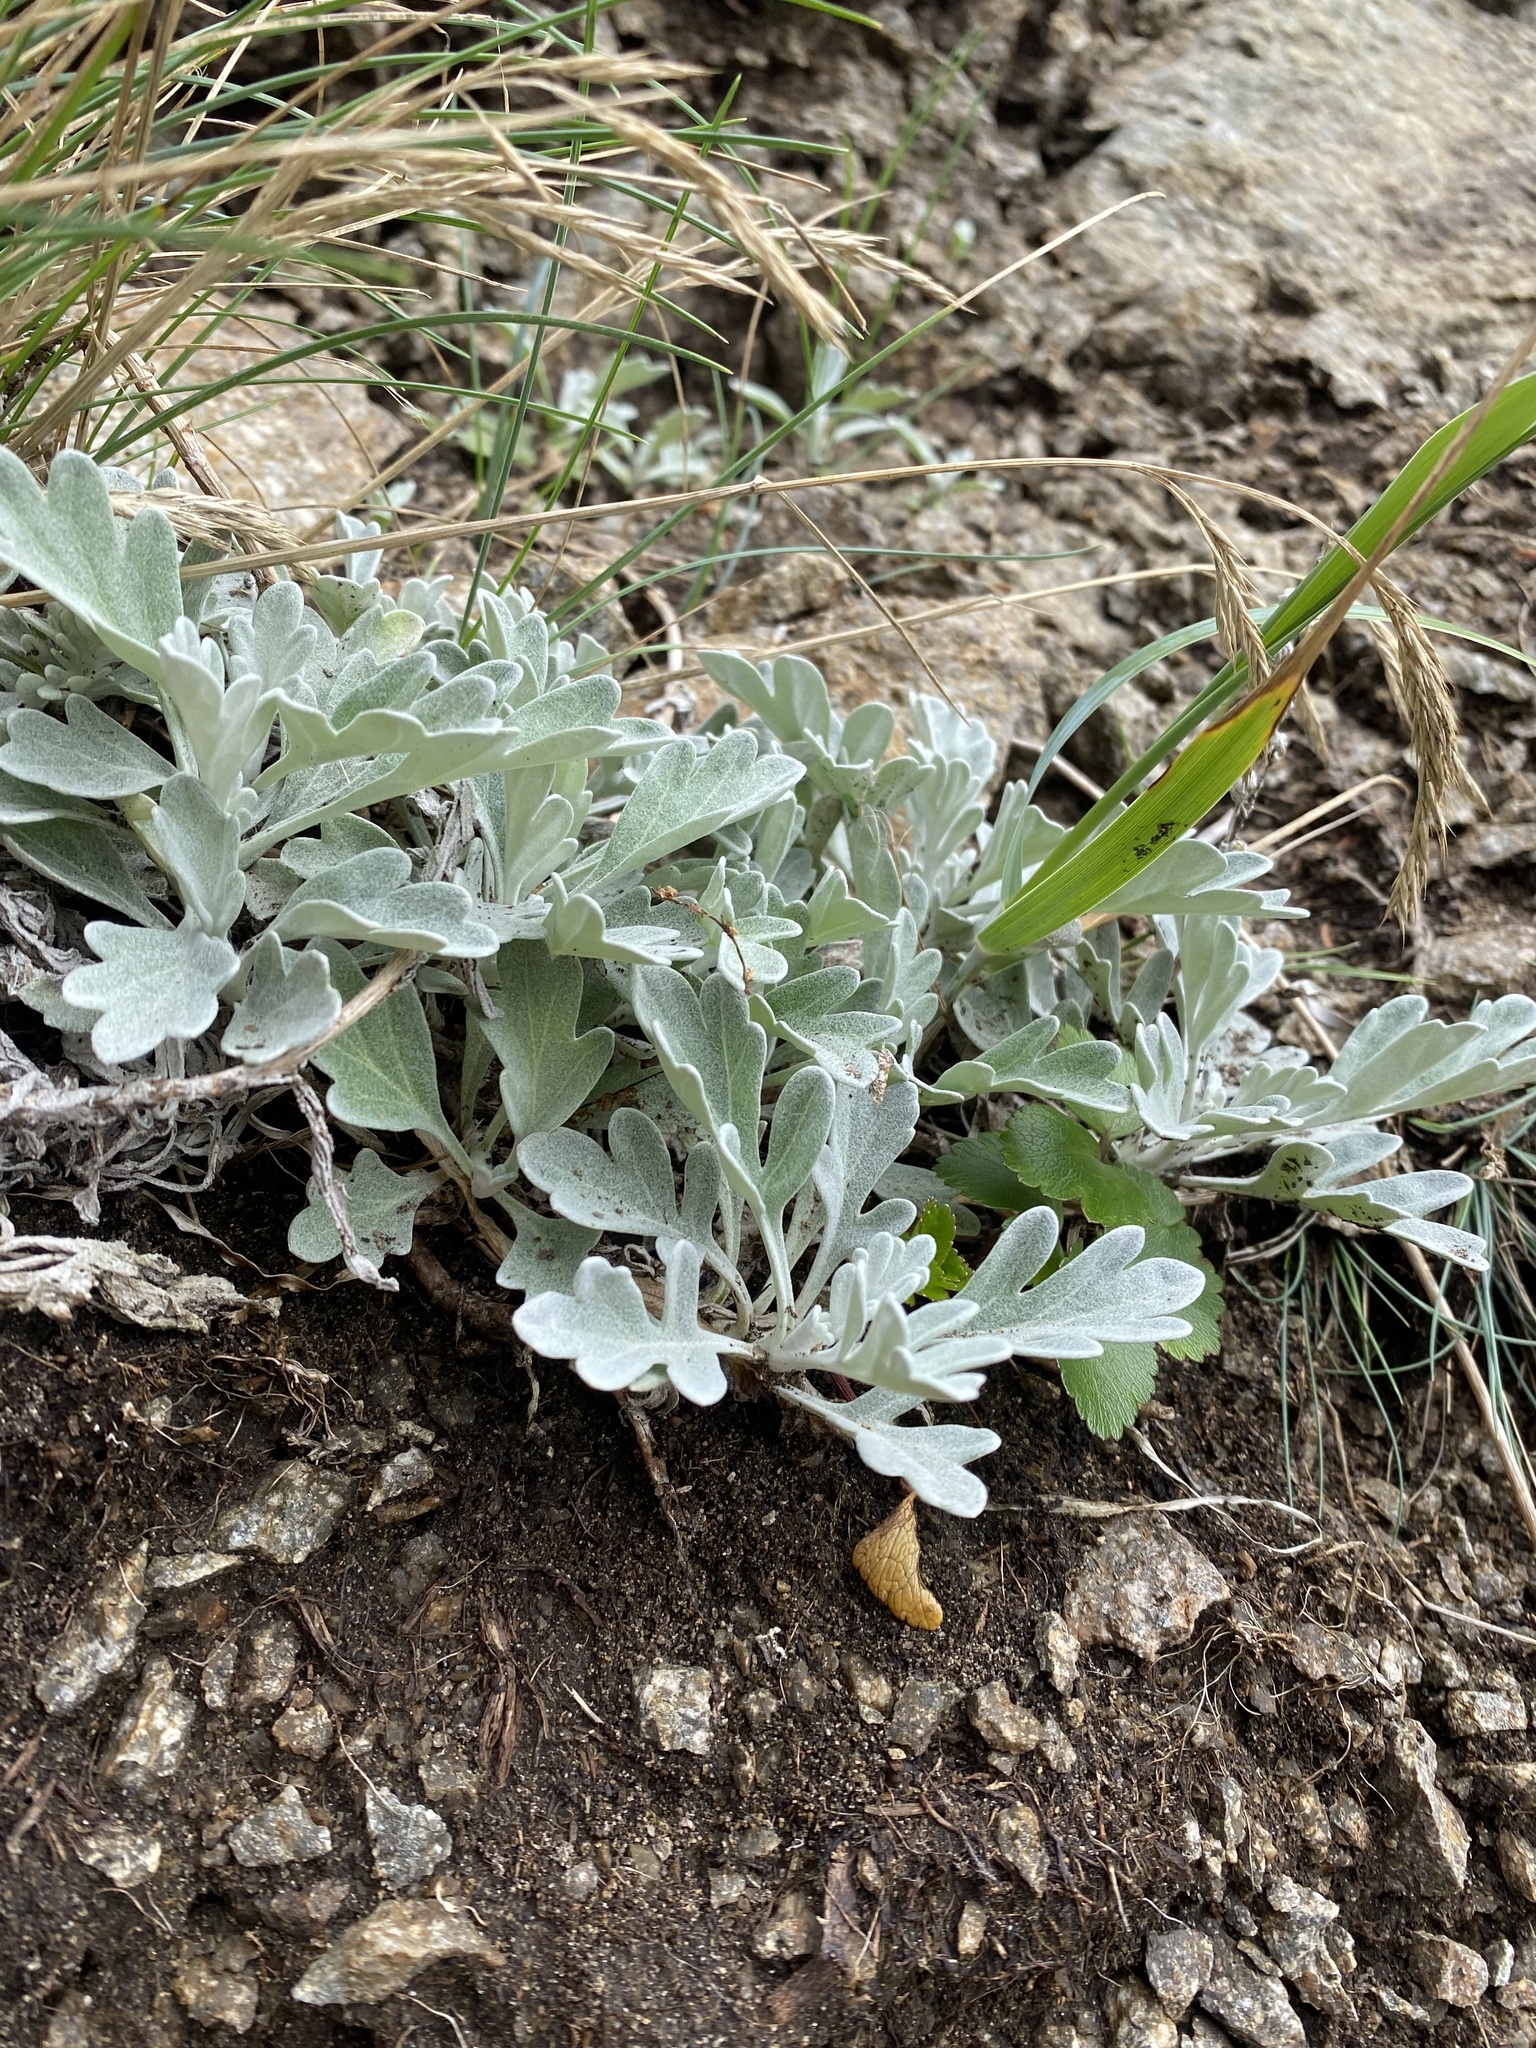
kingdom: Plantae
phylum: Tracheophyta
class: Magnoliopsida
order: Asterales
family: Asteraceae
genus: Artemisia
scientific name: Artemisia stelleriana
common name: Beach wormwood
